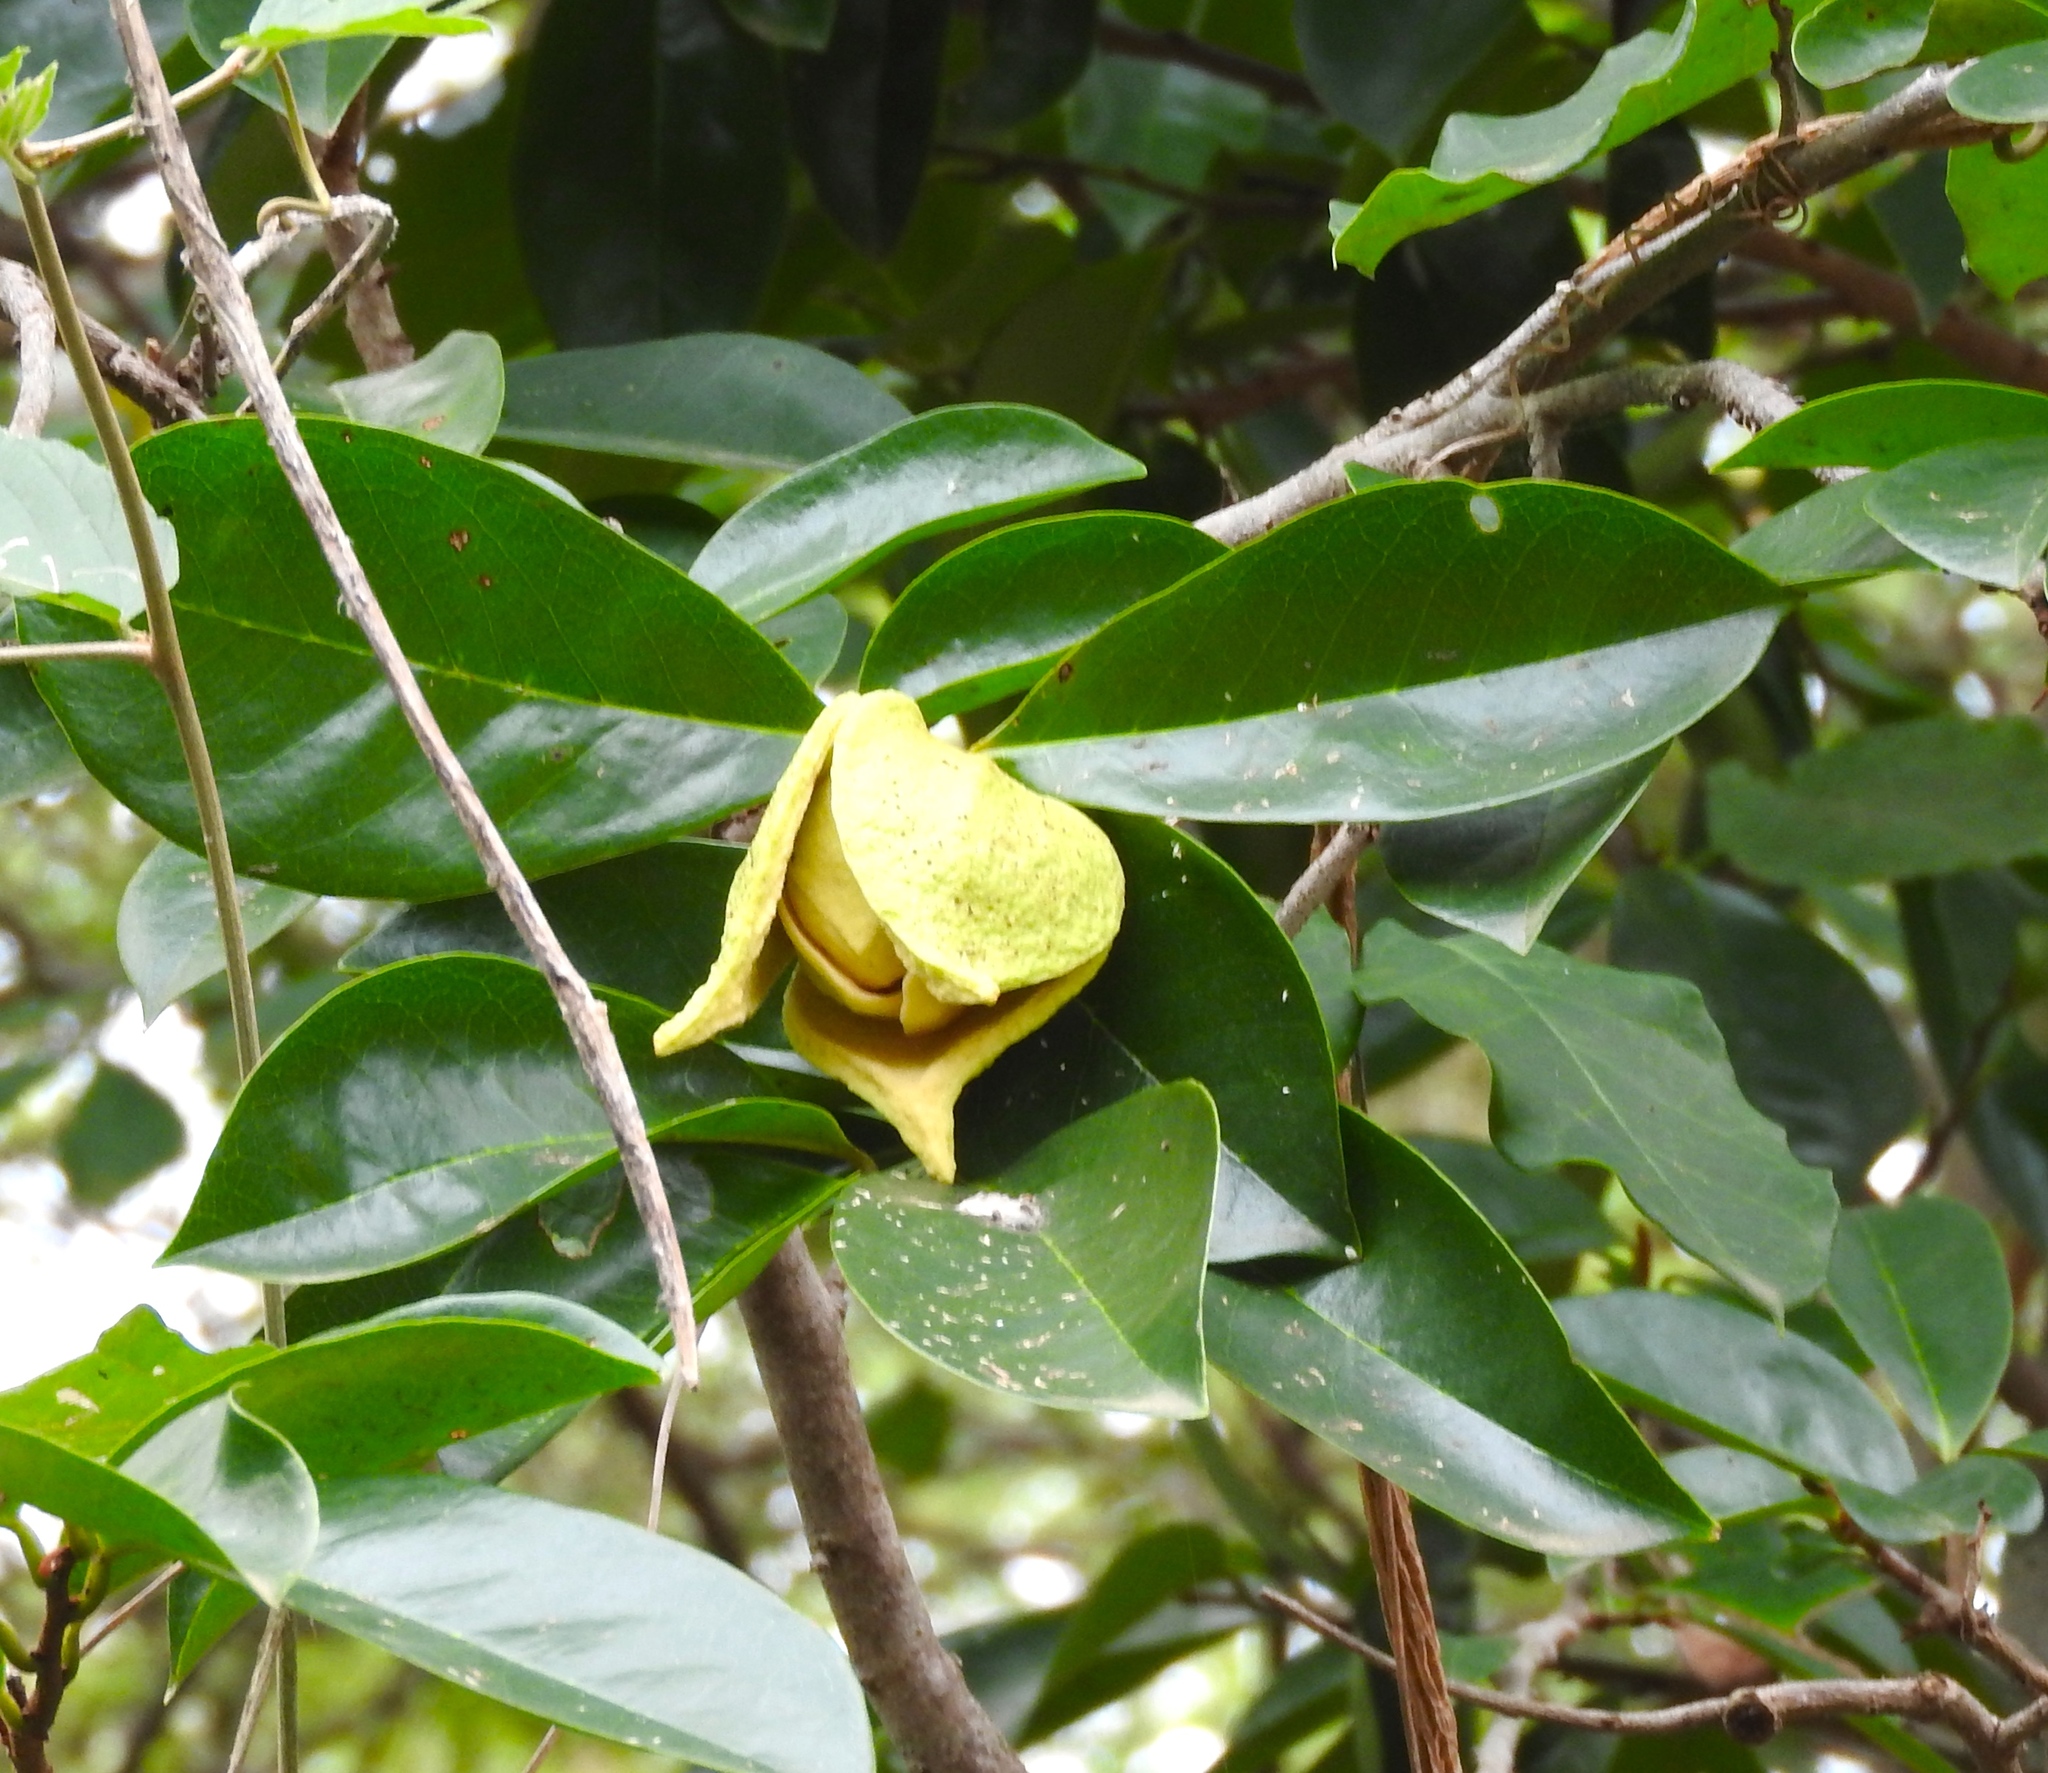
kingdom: Plantae
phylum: Tracheophyta
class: Magnoliopsida
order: Magnoliales
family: Annonaceae
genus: Annona
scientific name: Annona muricata
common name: Soursop
